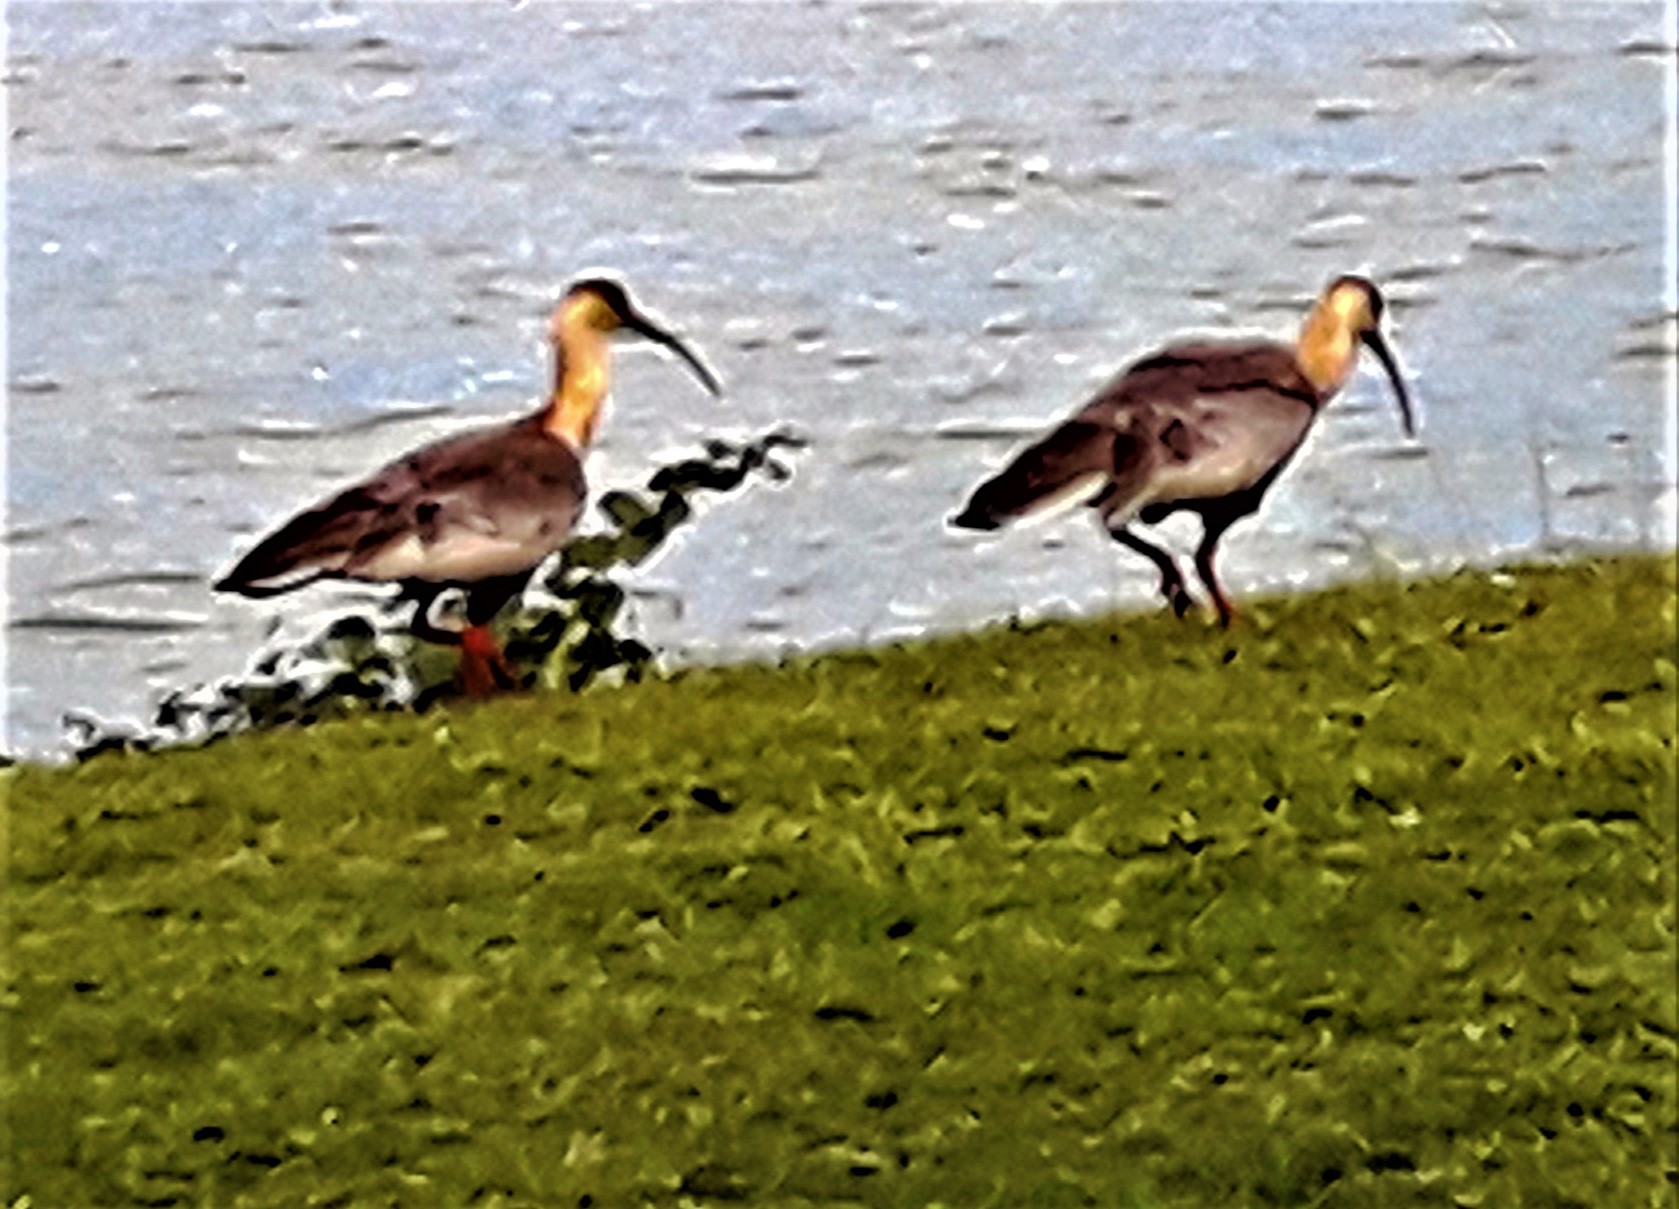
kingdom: Animalia
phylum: Chordata
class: Aves
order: Pelecaniformes
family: Threskiornithidae
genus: Theristicus
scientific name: Theristicus caudatus
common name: Buff-necked ibis
